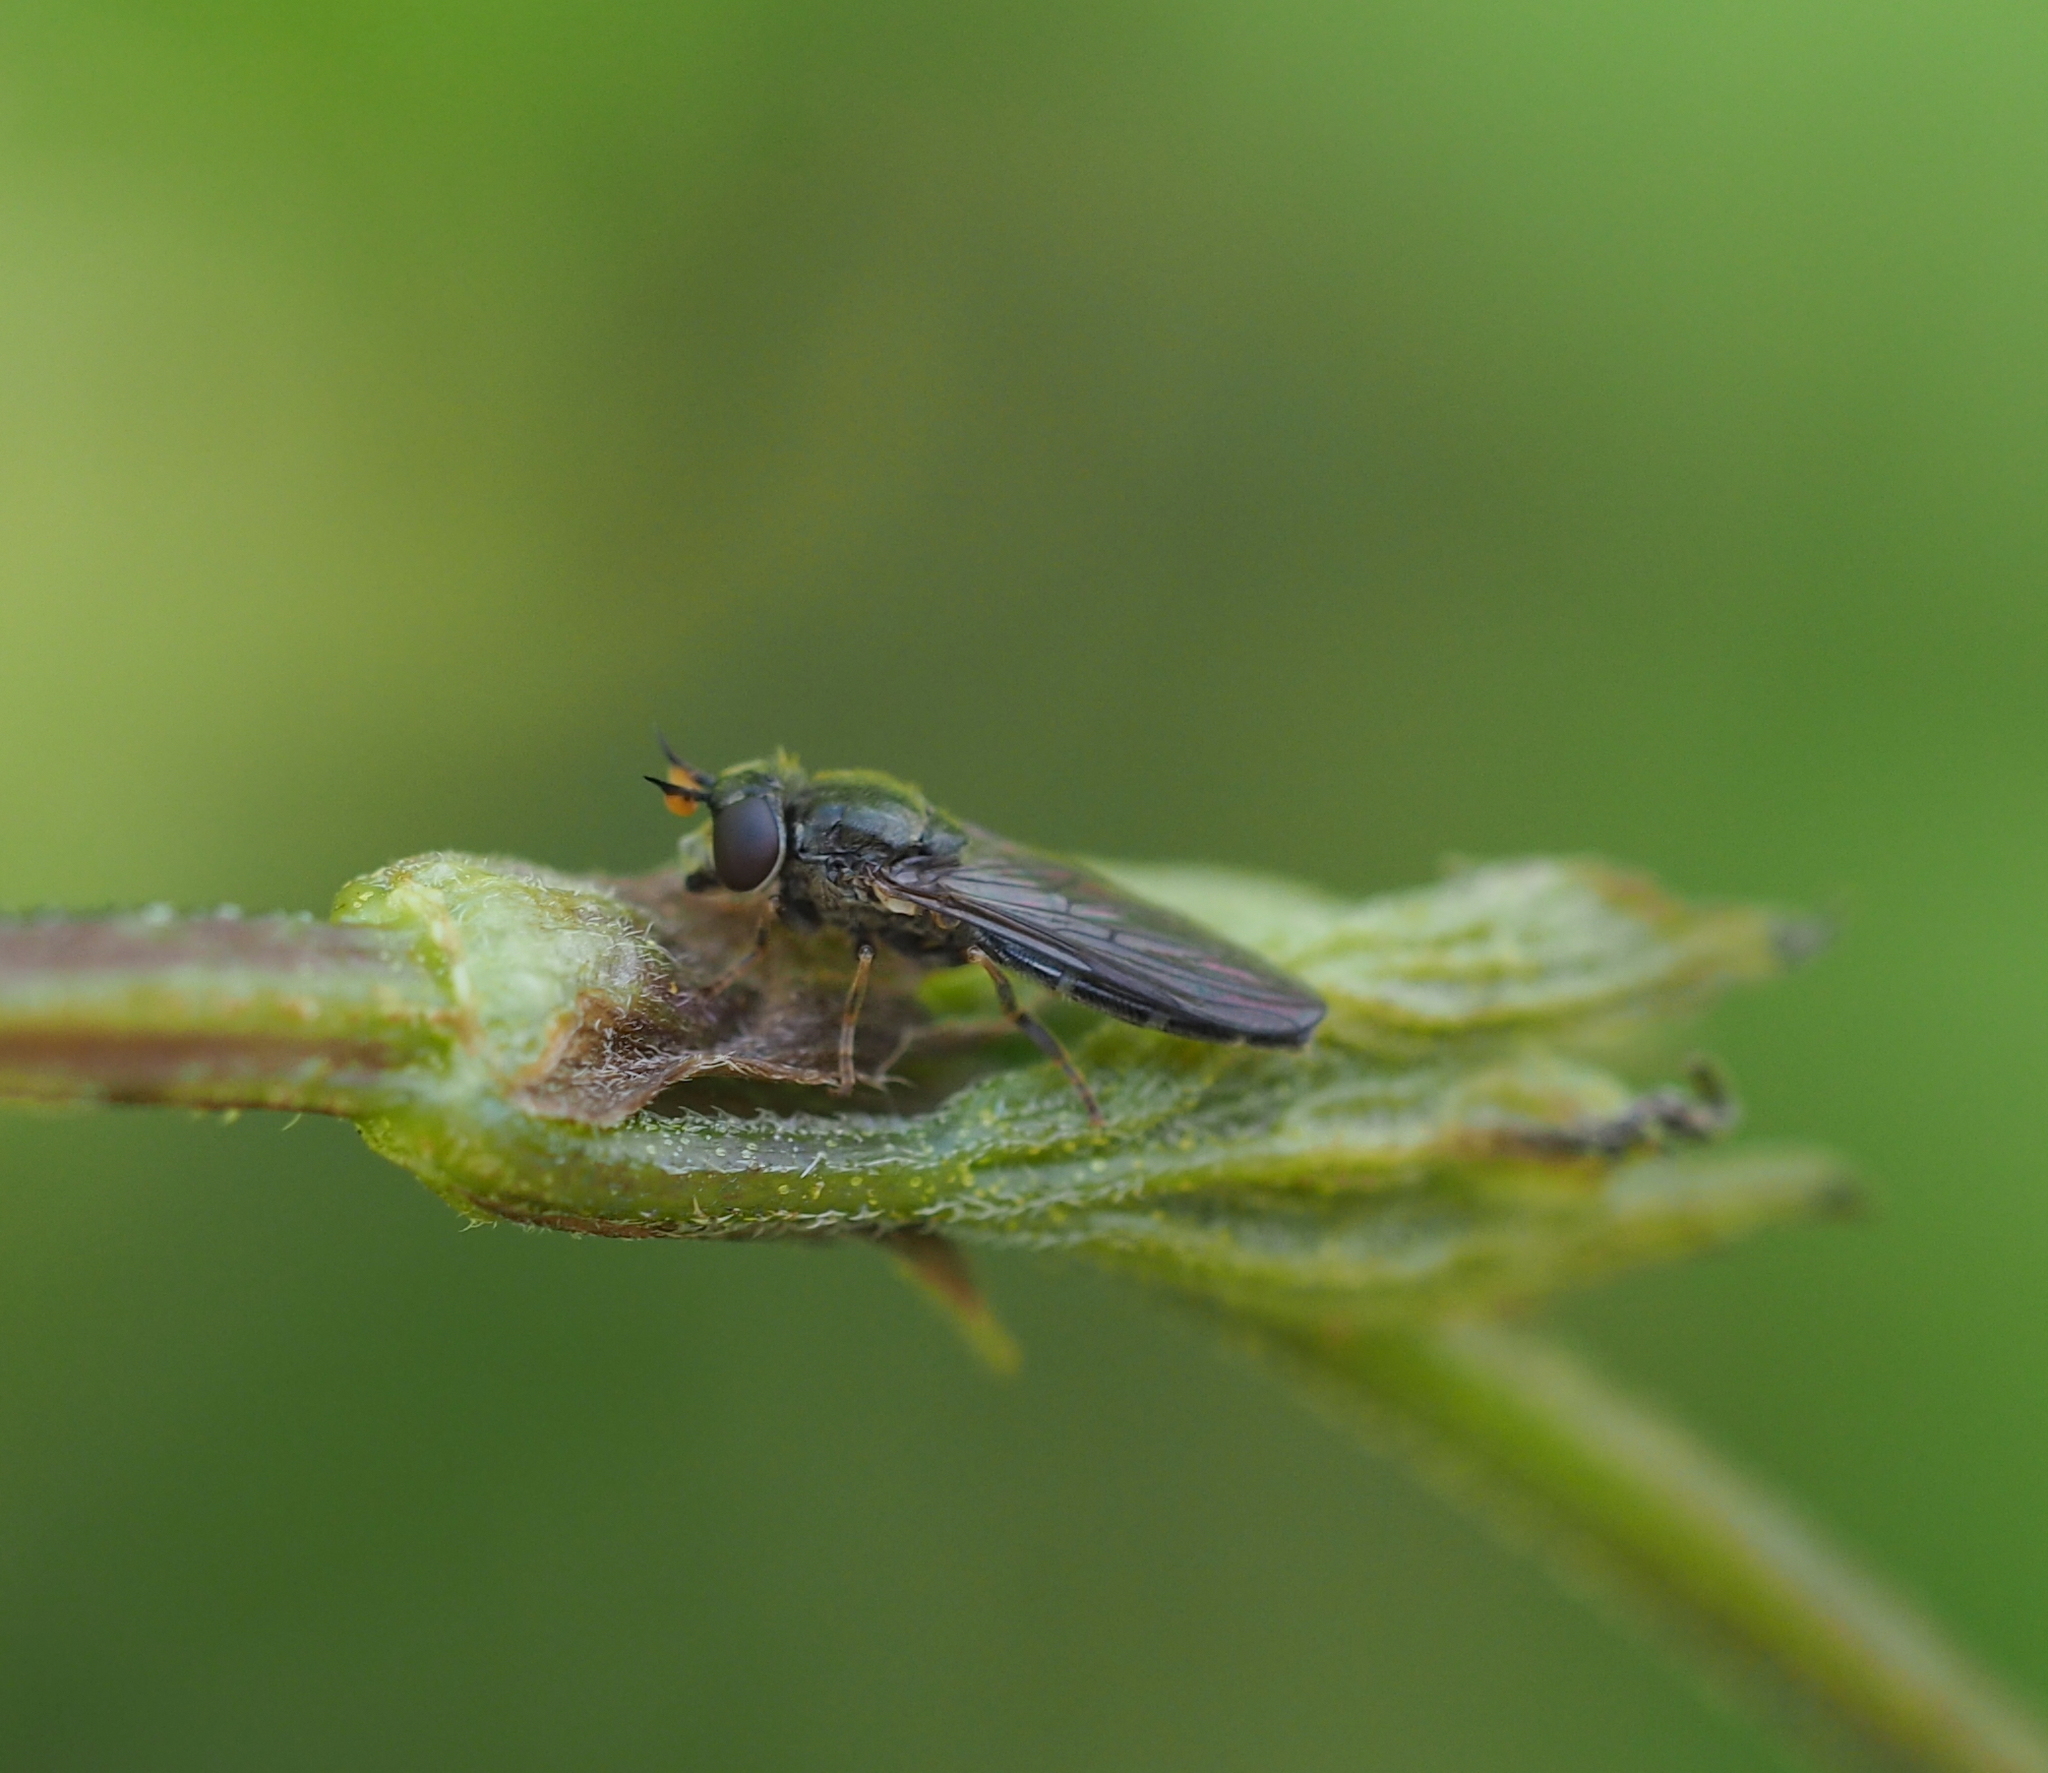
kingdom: Animalia
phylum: Arthropoda
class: Insecta
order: Diptera
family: Syrphidae
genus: Pseudopelecocera
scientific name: Pseudopelecocera latifrons
